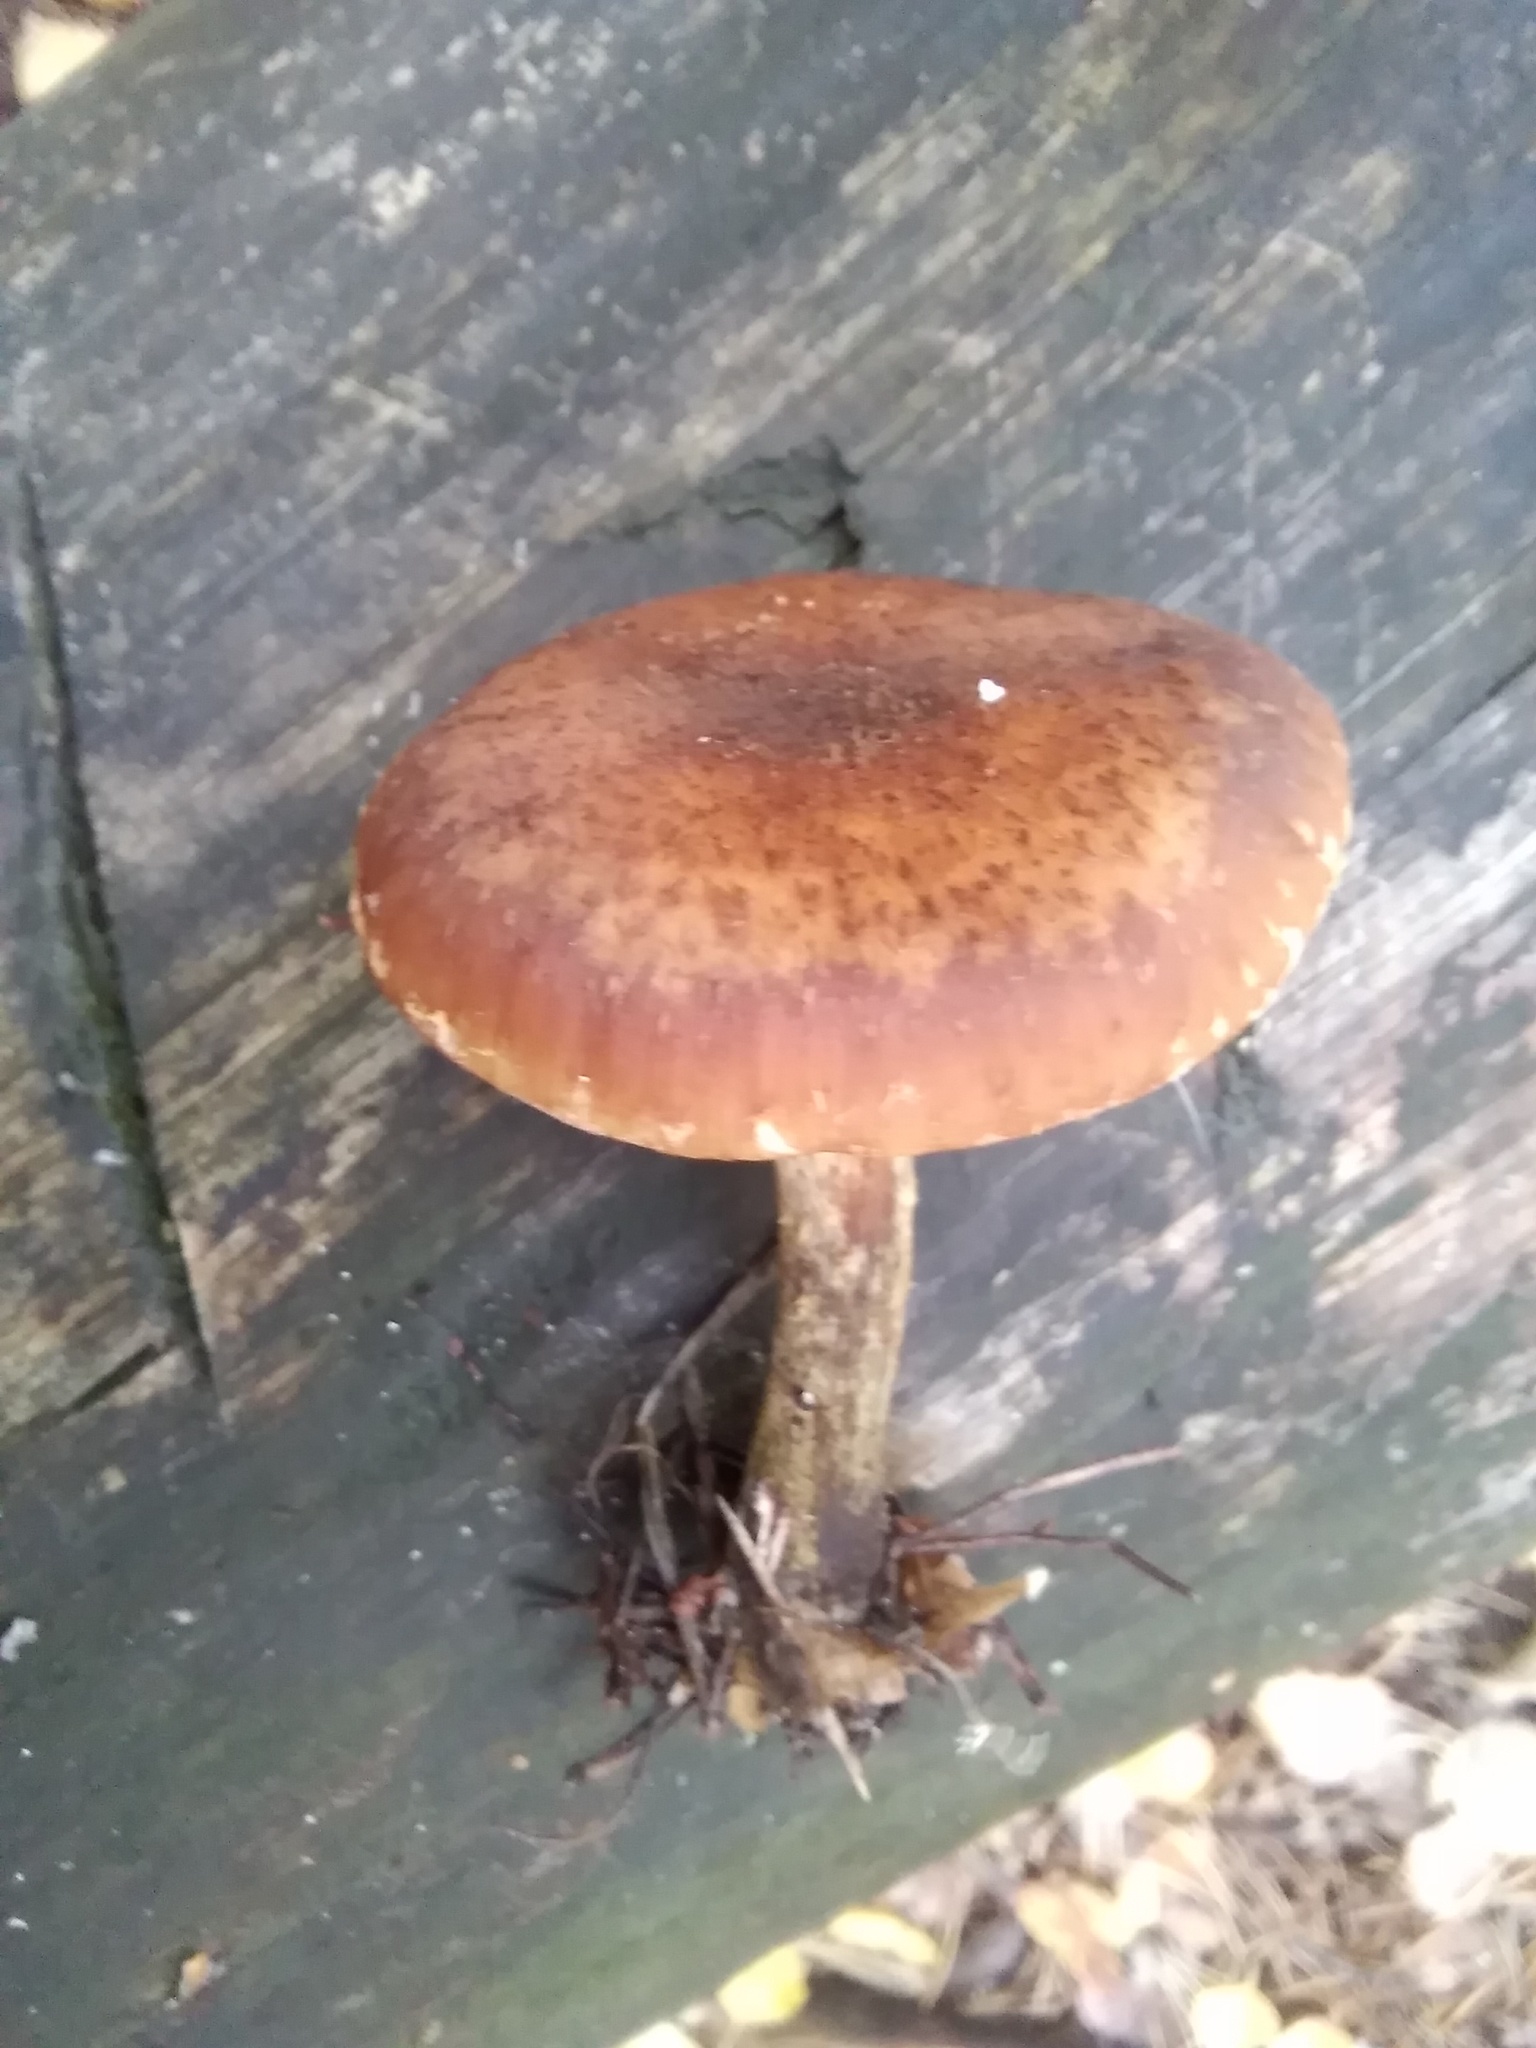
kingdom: Fungi
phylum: Basidiomycota
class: Agaricomycetes
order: Agaricales
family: Physalacriaceae
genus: Armillaria
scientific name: Armillaria mellea
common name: Honey fungus
